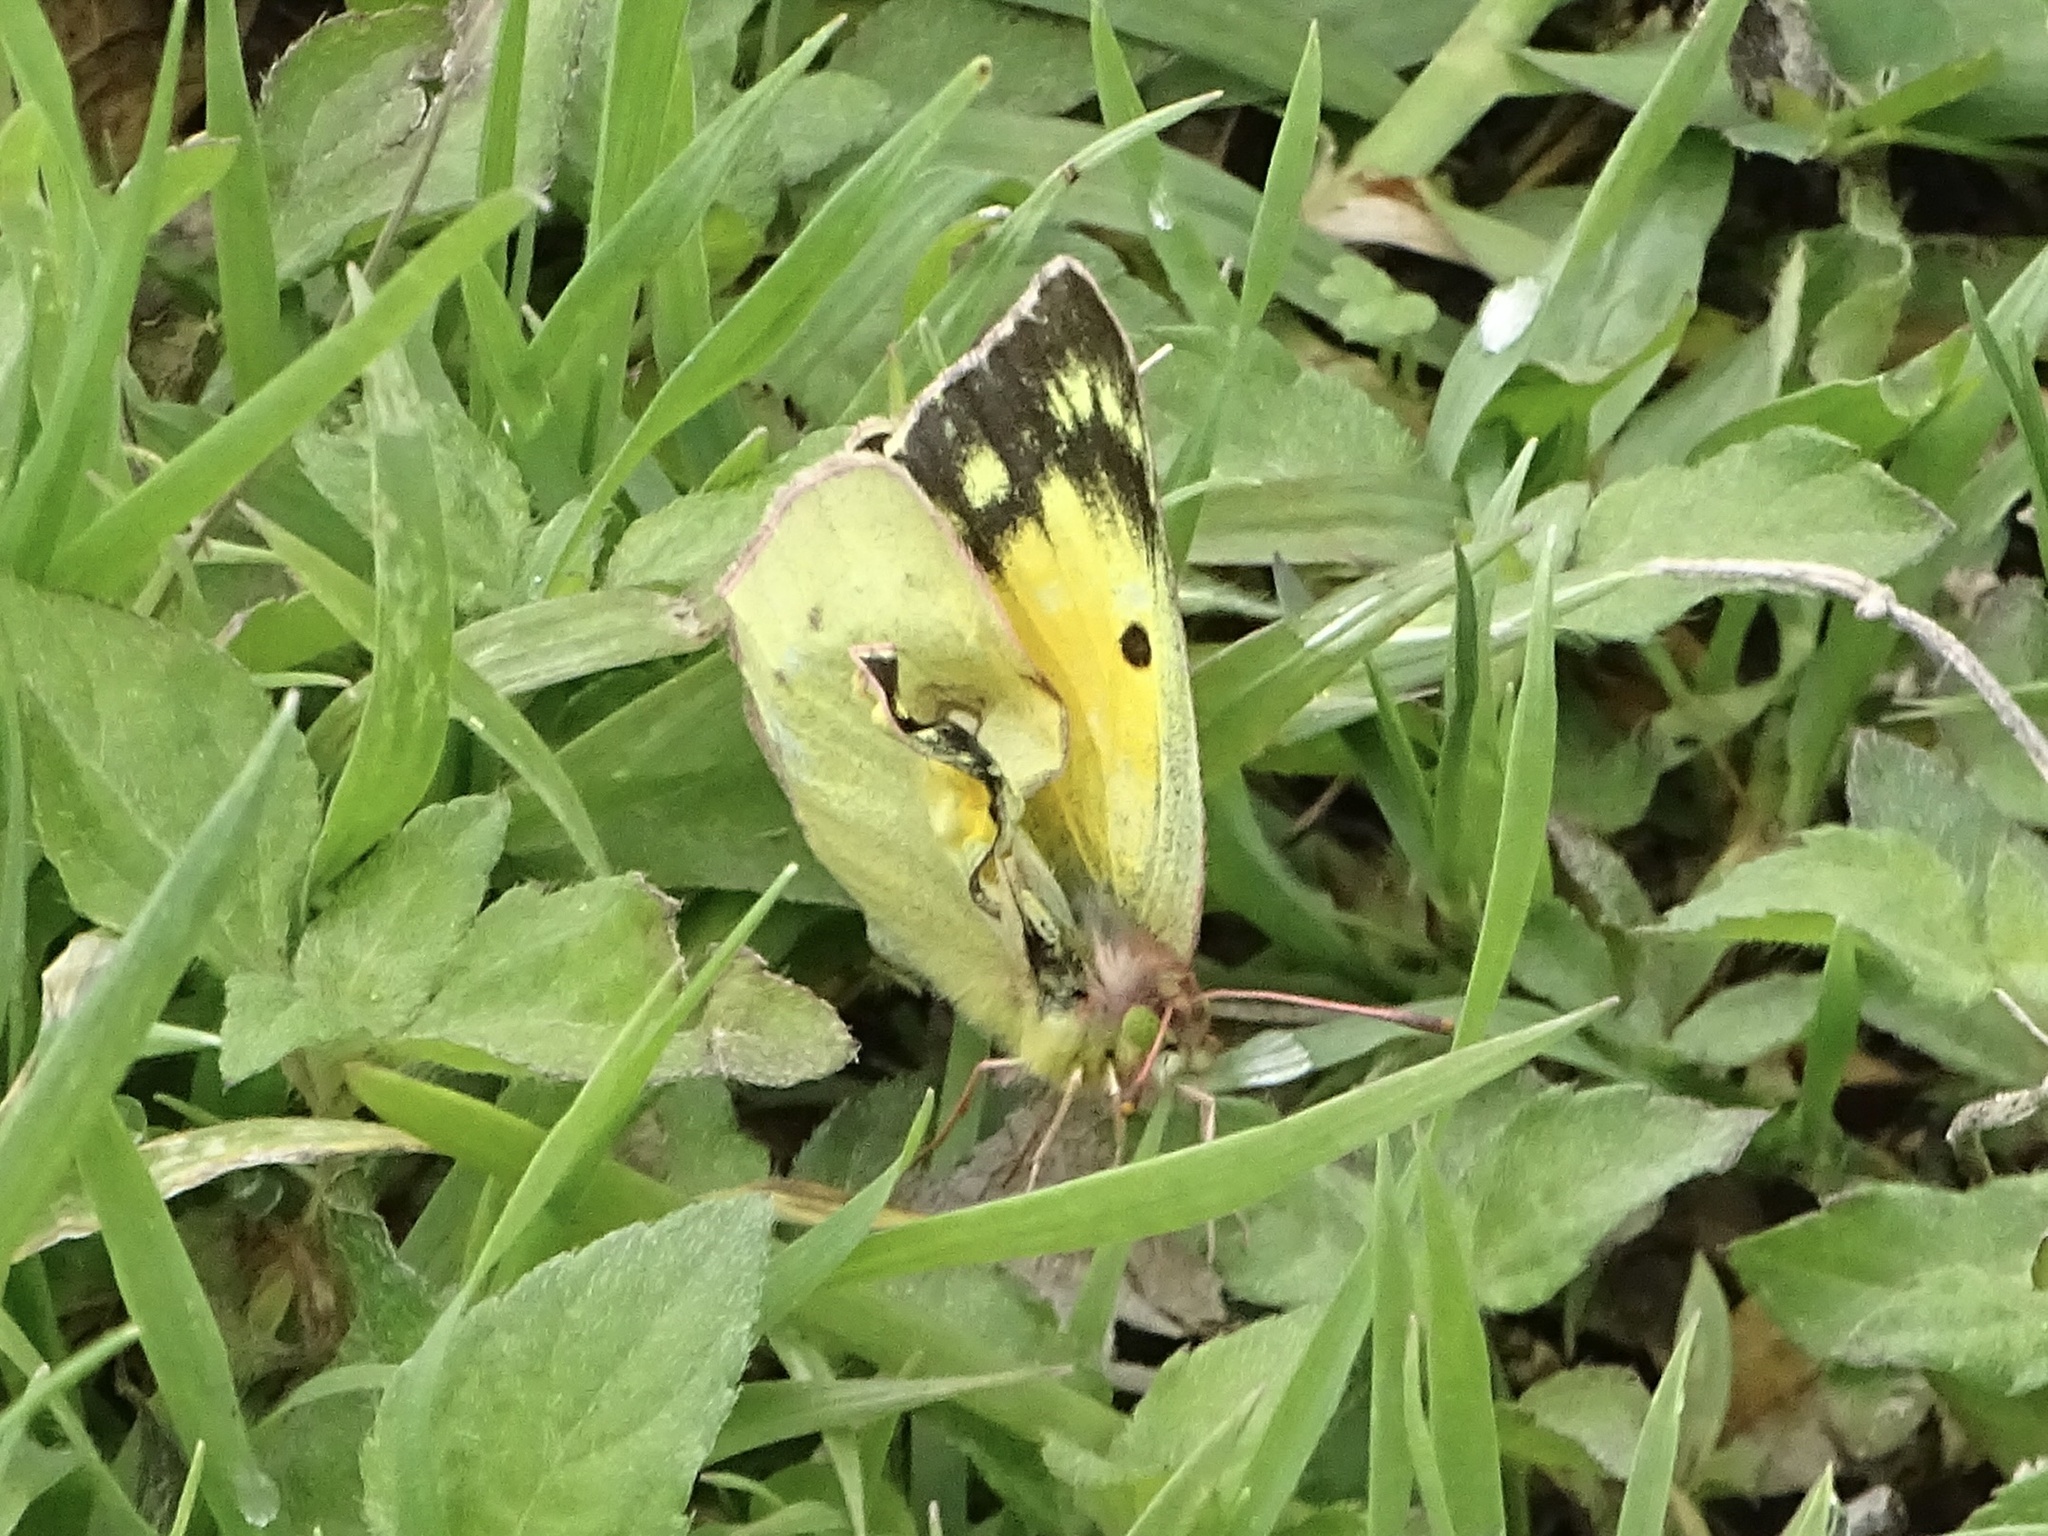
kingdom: Animalia
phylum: Arthropoda
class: Insecta
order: Lepidoptera
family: Pieridae
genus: Colias
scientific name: Colias eurytheme
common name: Alfalfa butterfly
